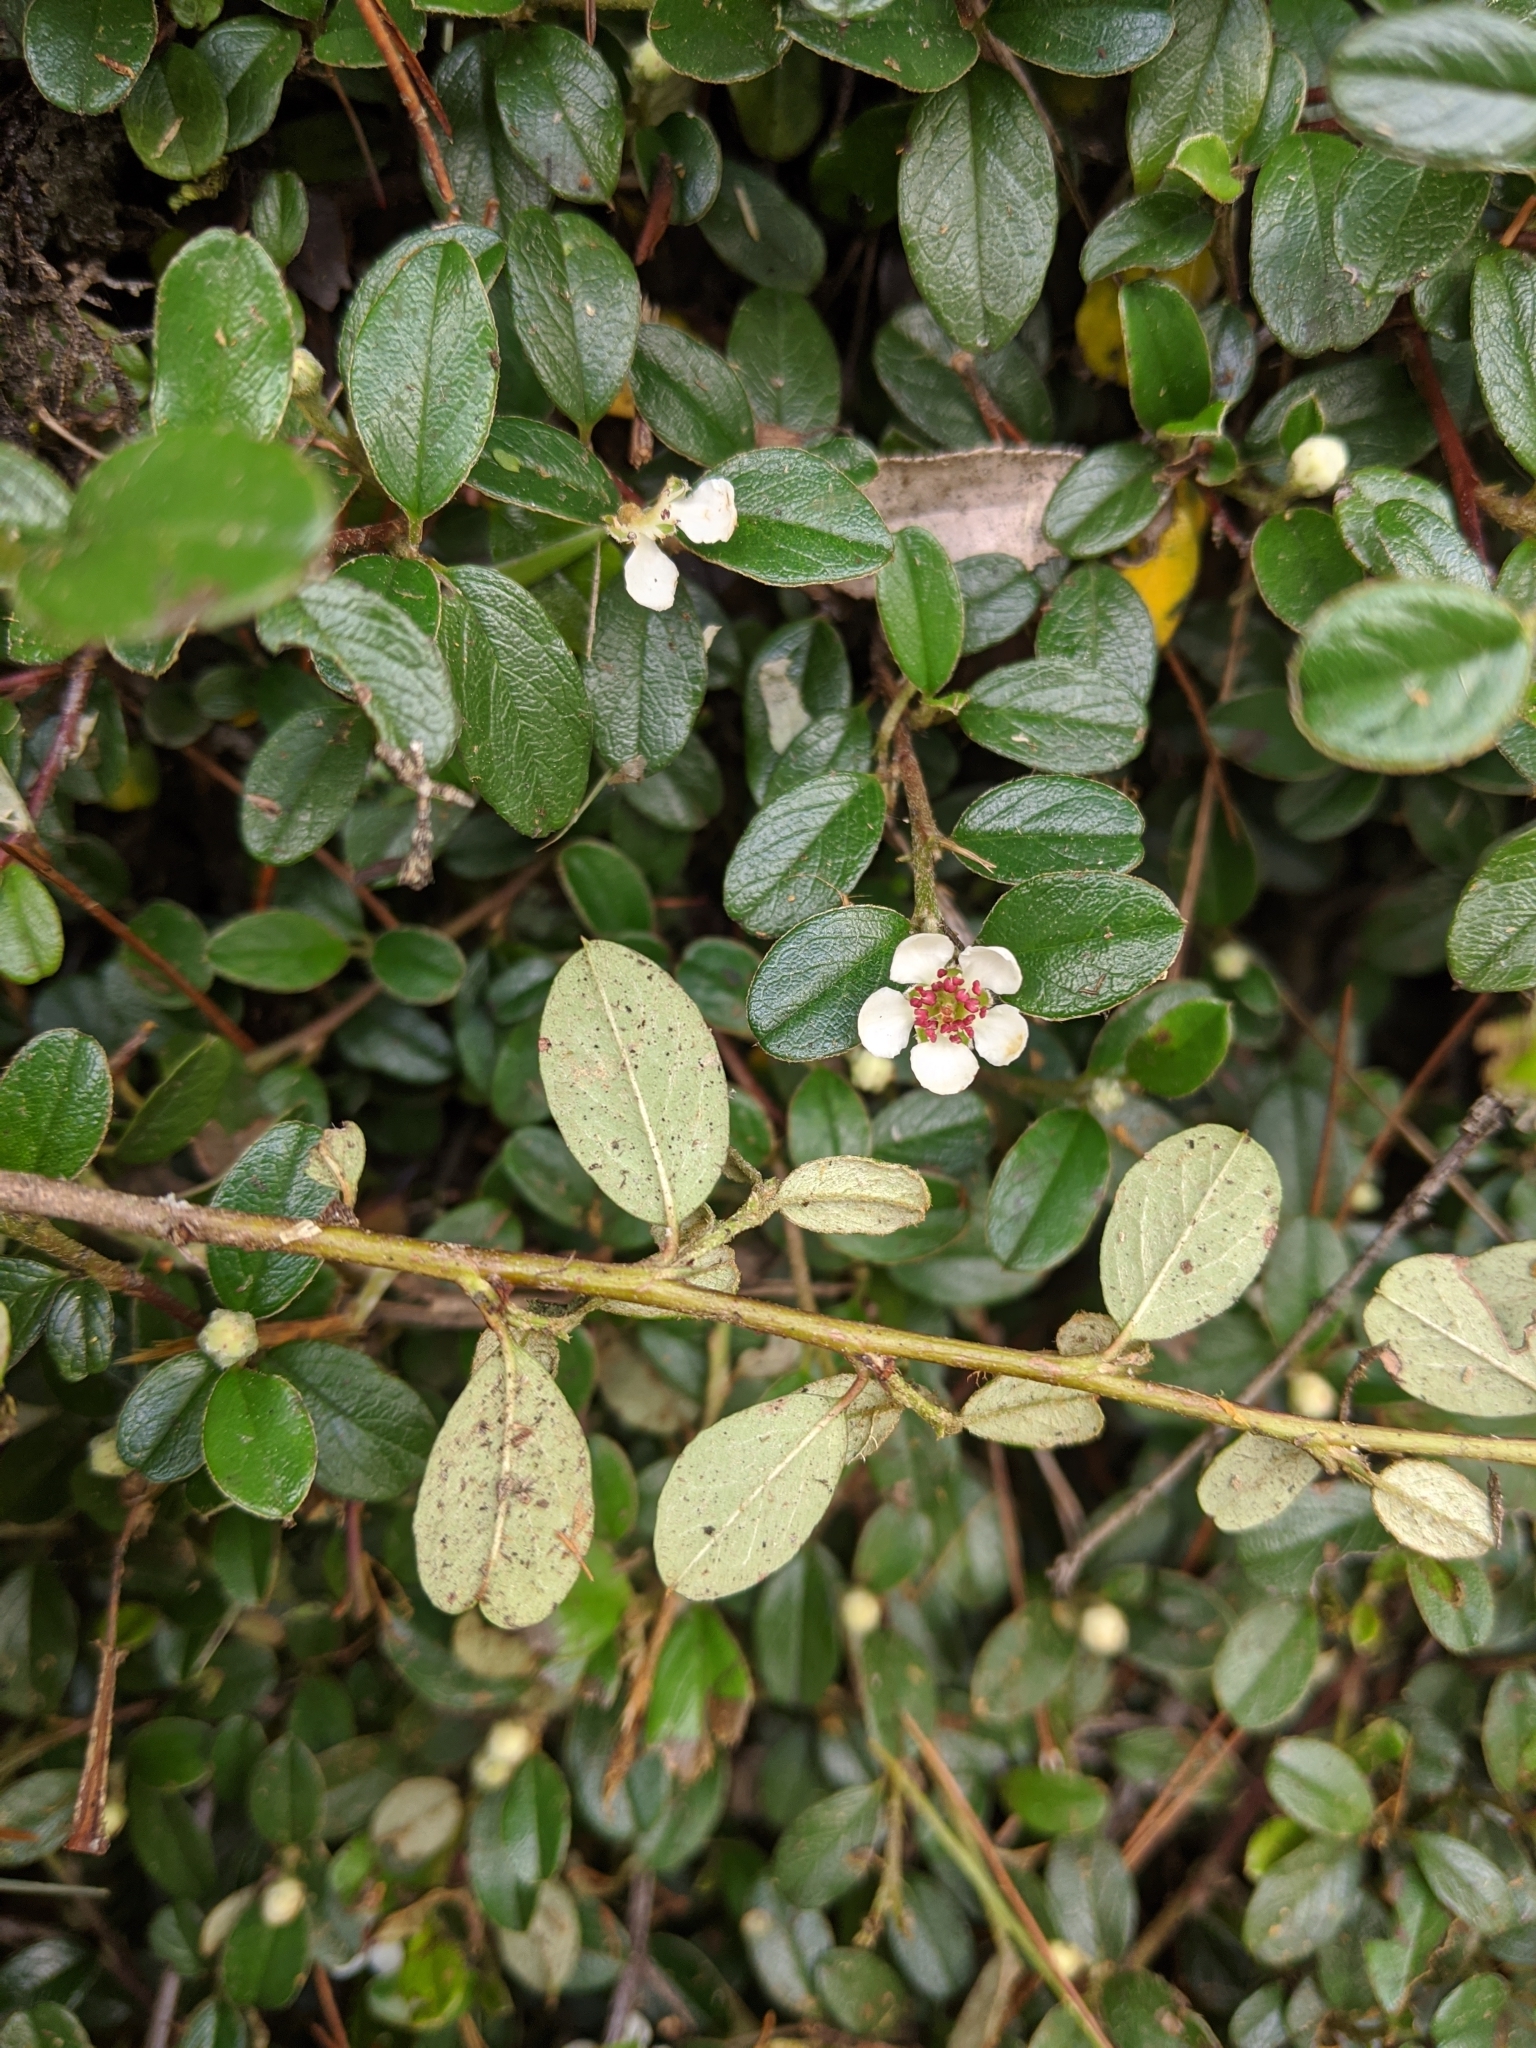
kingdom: Plantae
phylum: Tracheophyta
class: Magnoliopsida
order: Rosales
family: Rosaceae
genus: Cotoneaster
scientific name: Cotoneaster morrisonensis
